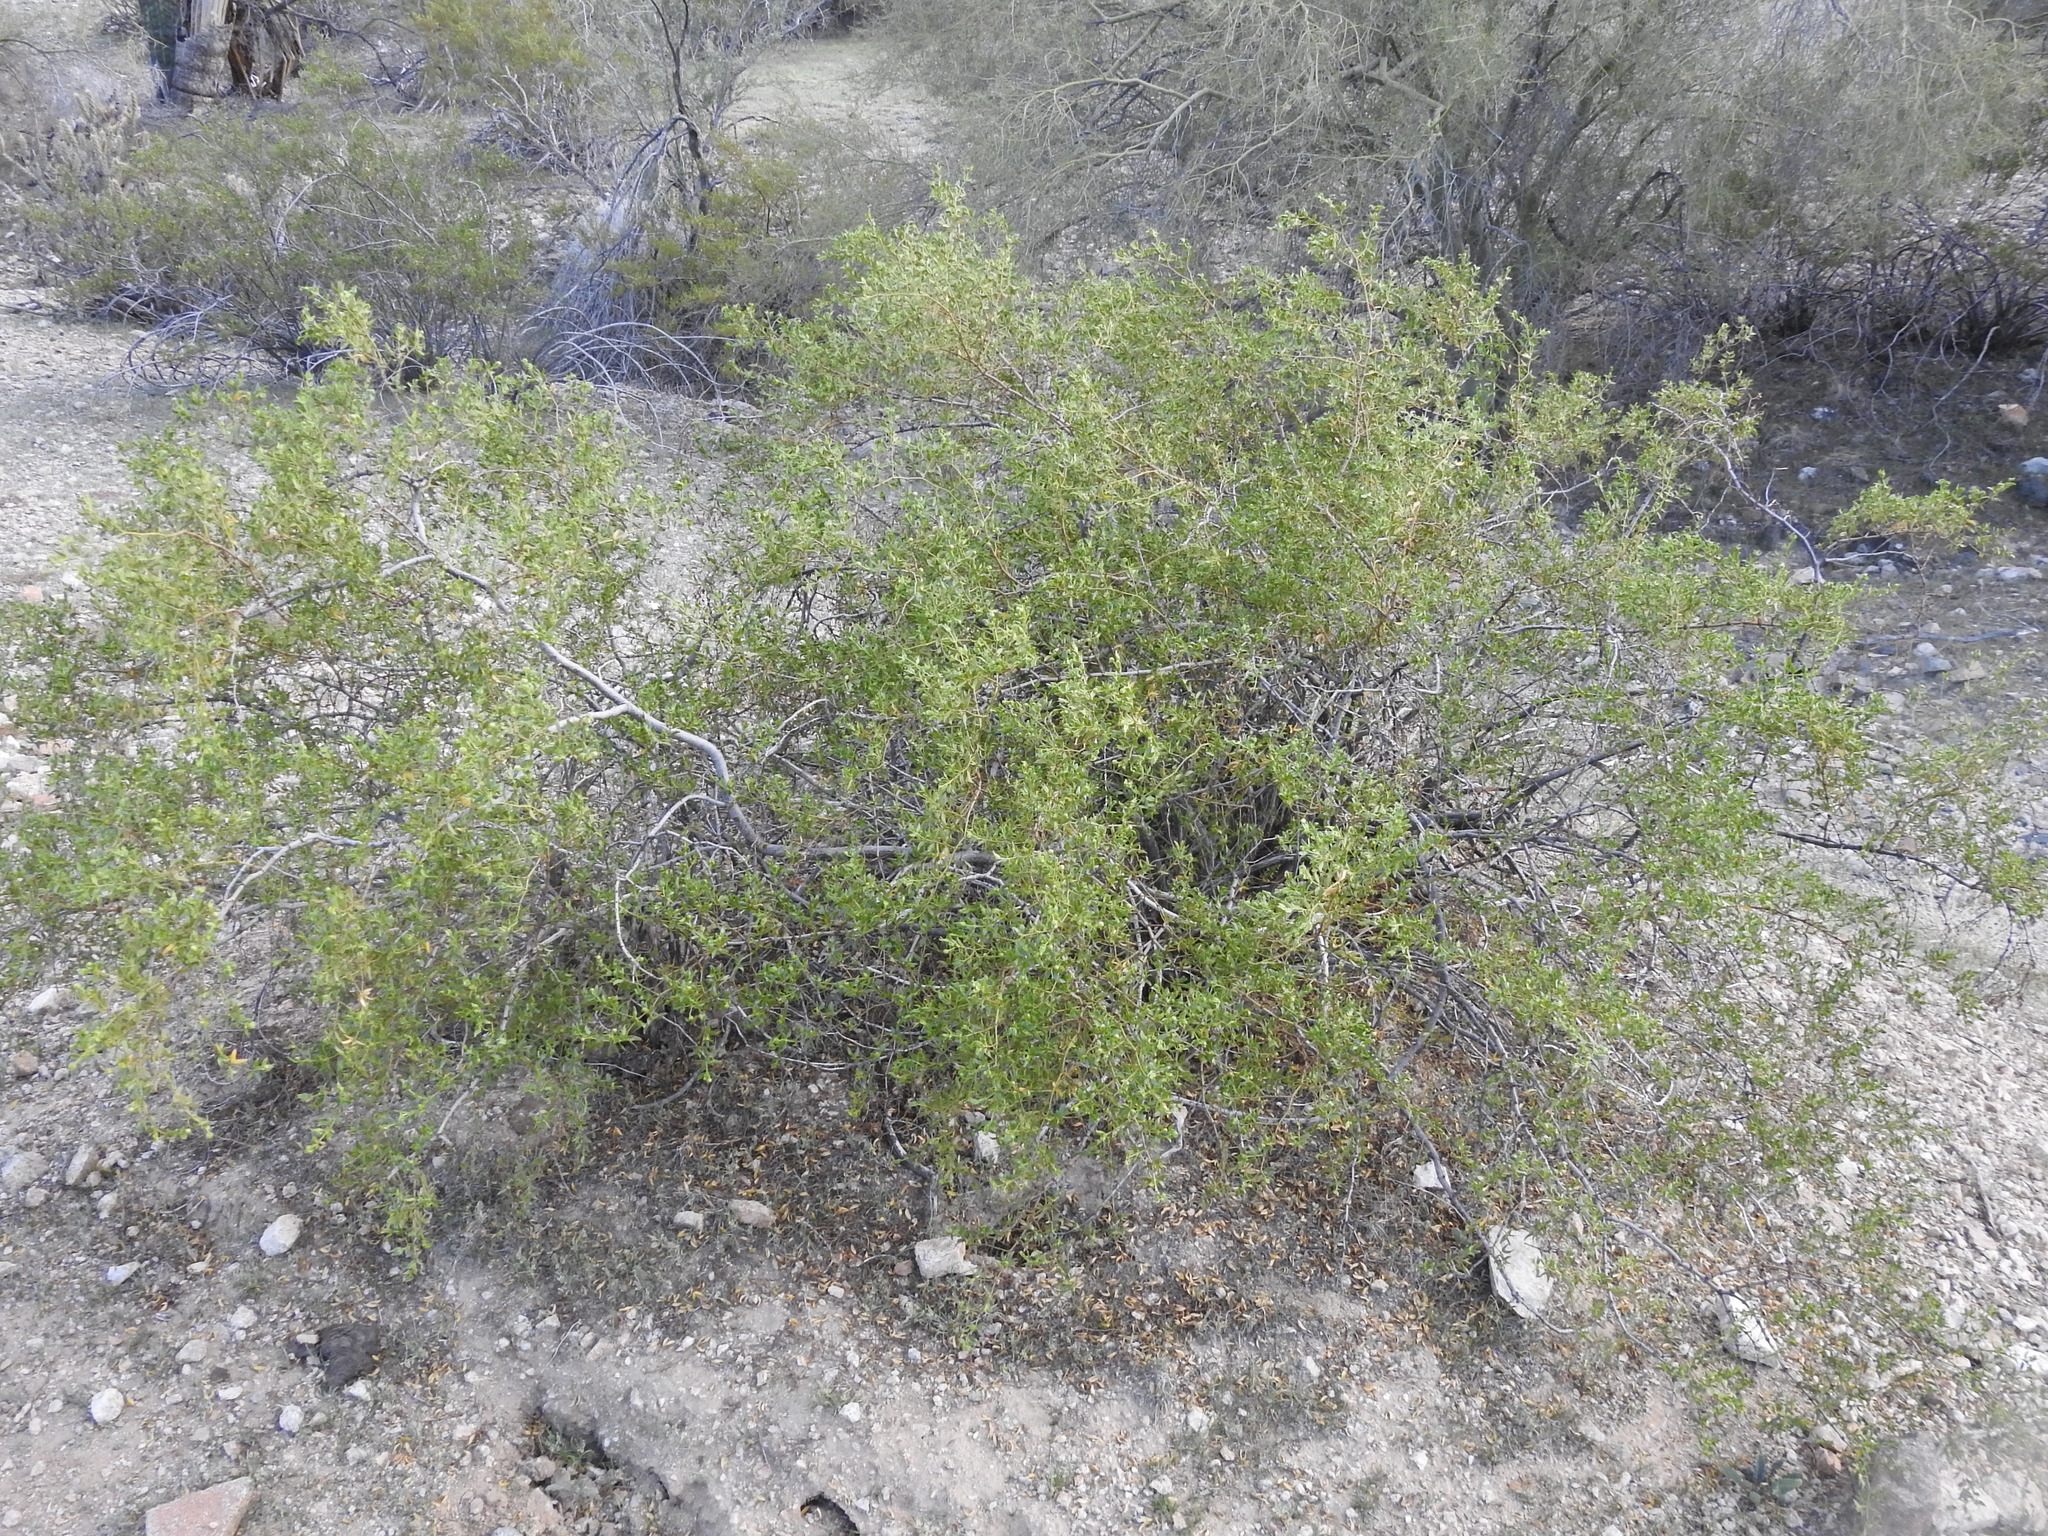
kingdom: Plantae
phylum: Tracheophyta
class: Magnoliopsida
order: Zygophyllales
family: Zygophyllaceae
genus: Larrea
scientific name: Larrea tridentata
